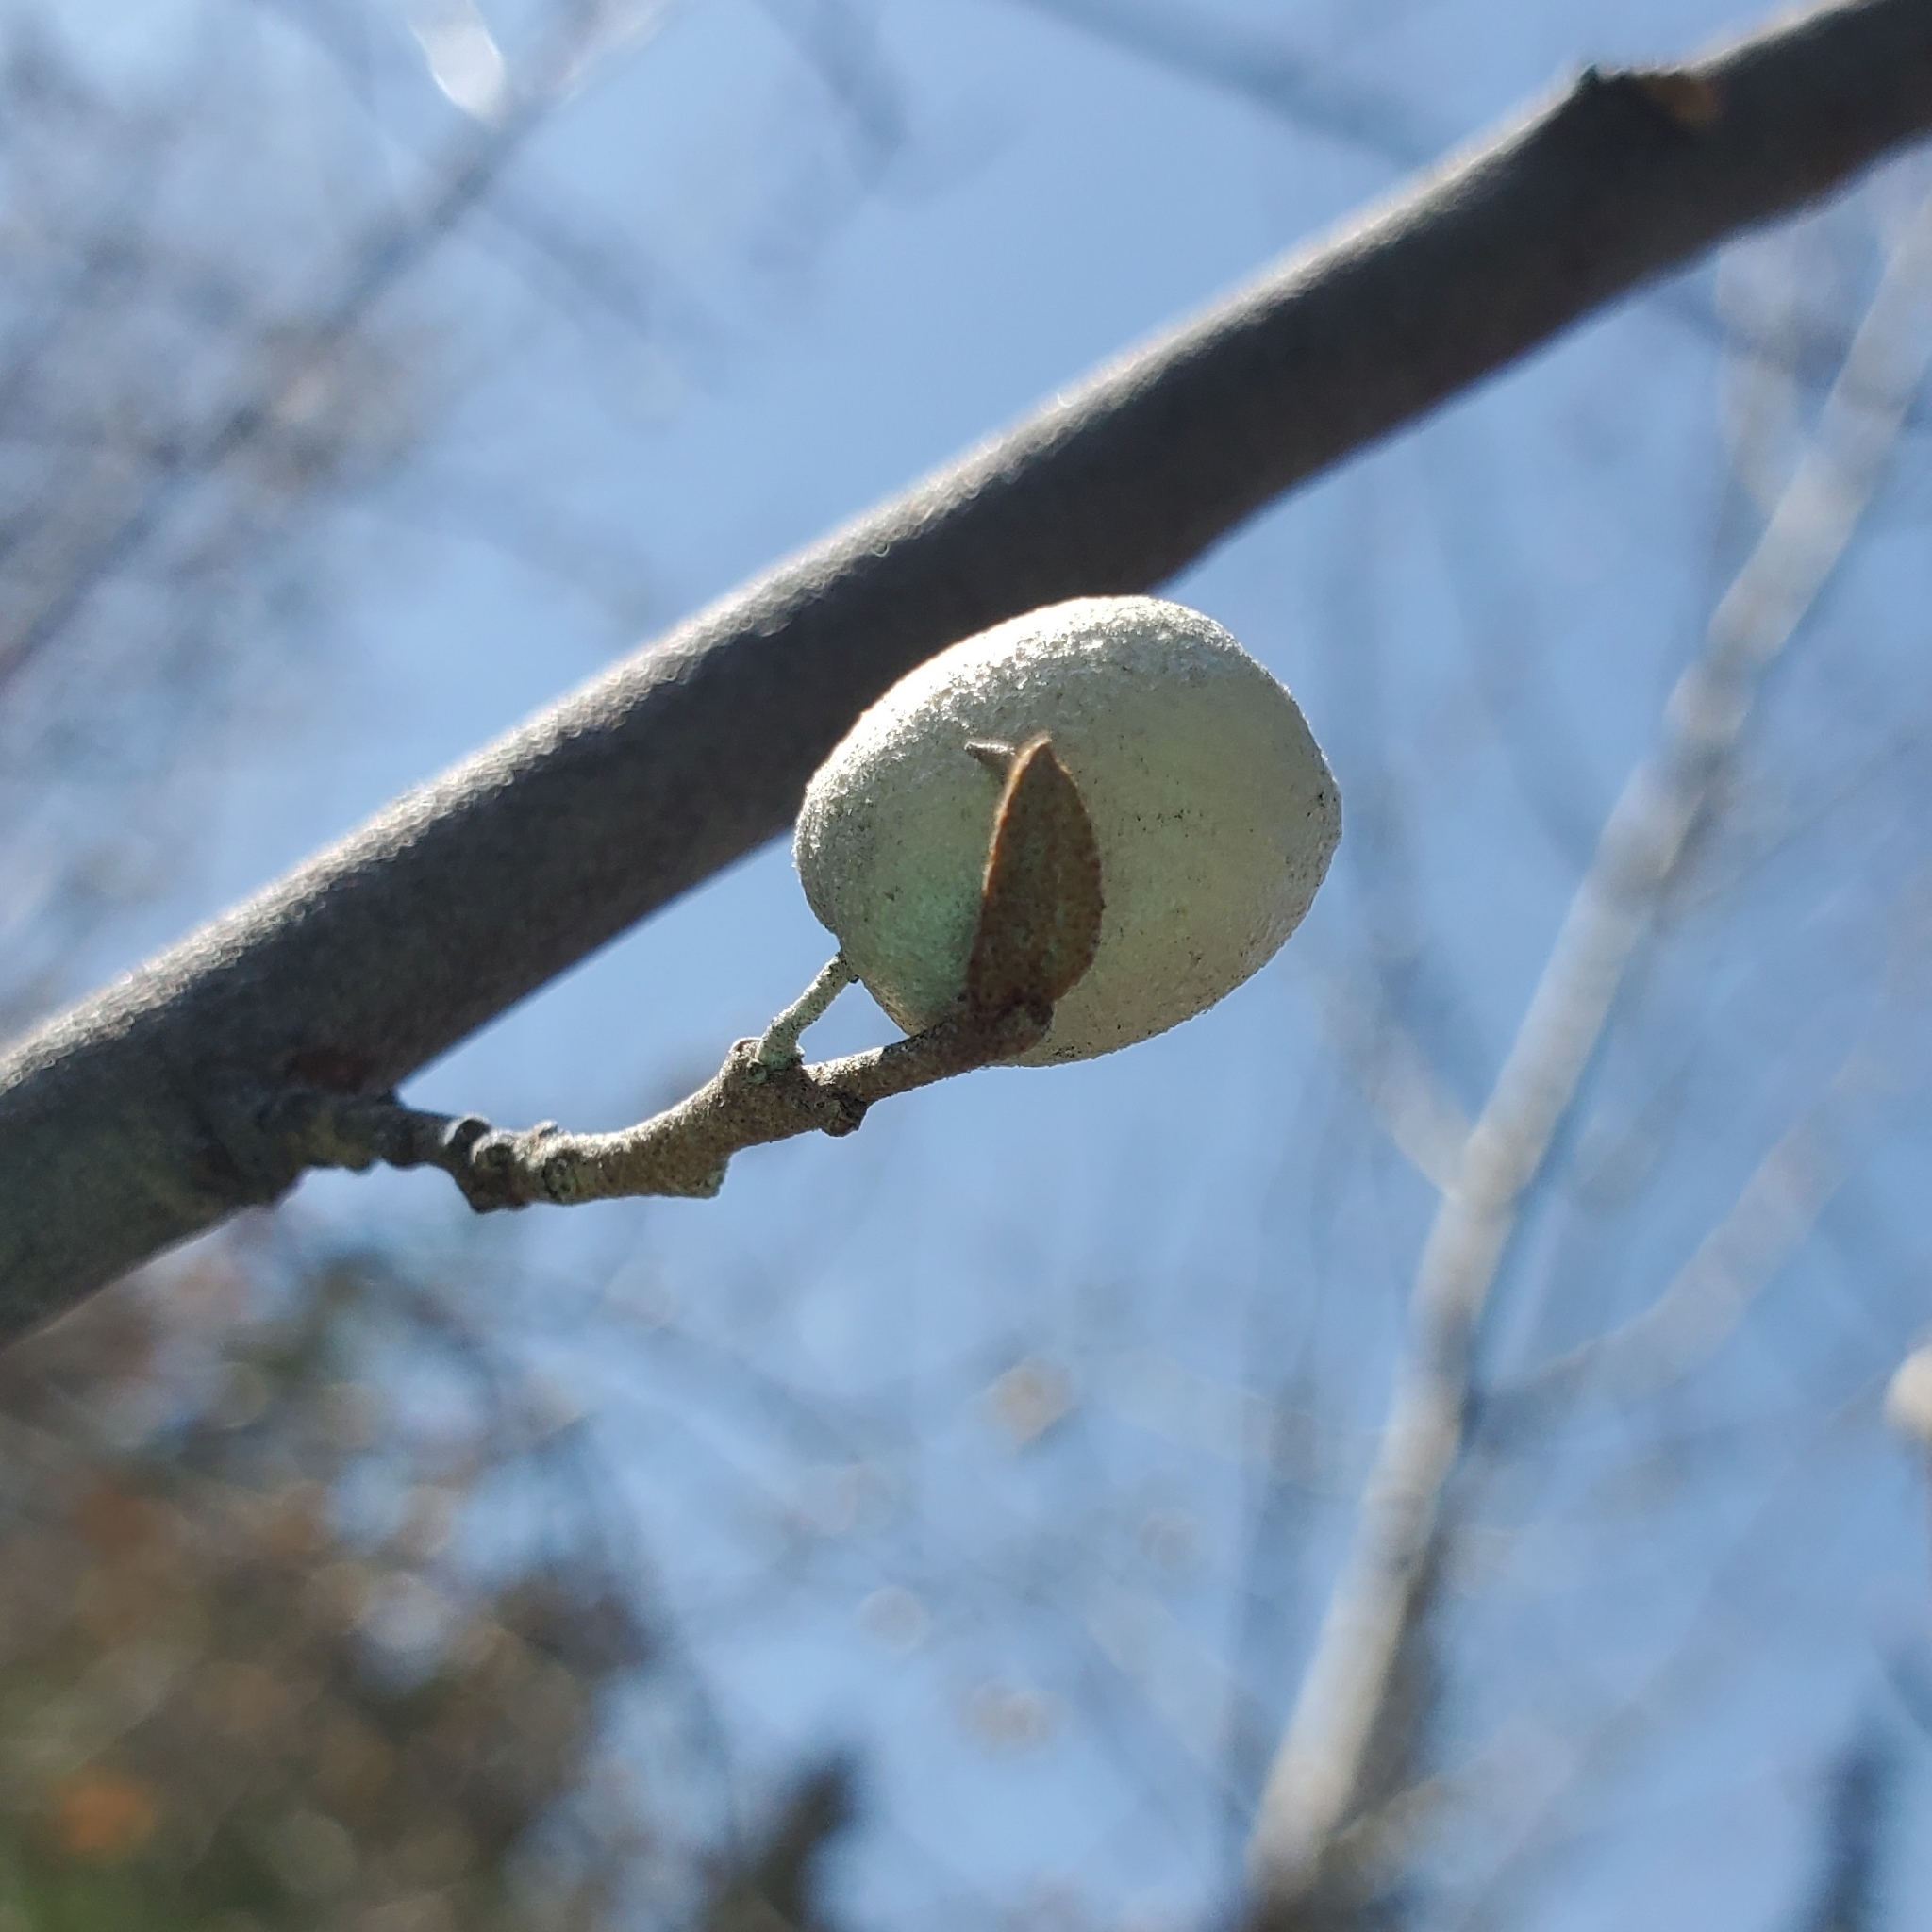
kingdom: Plantae
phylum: Tracheophyta
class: Magnoliopsida
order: Rosales
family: Elaeagnaceae
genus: Elaeagnus
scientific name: Elaeagnus commutata
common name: Silverberry
